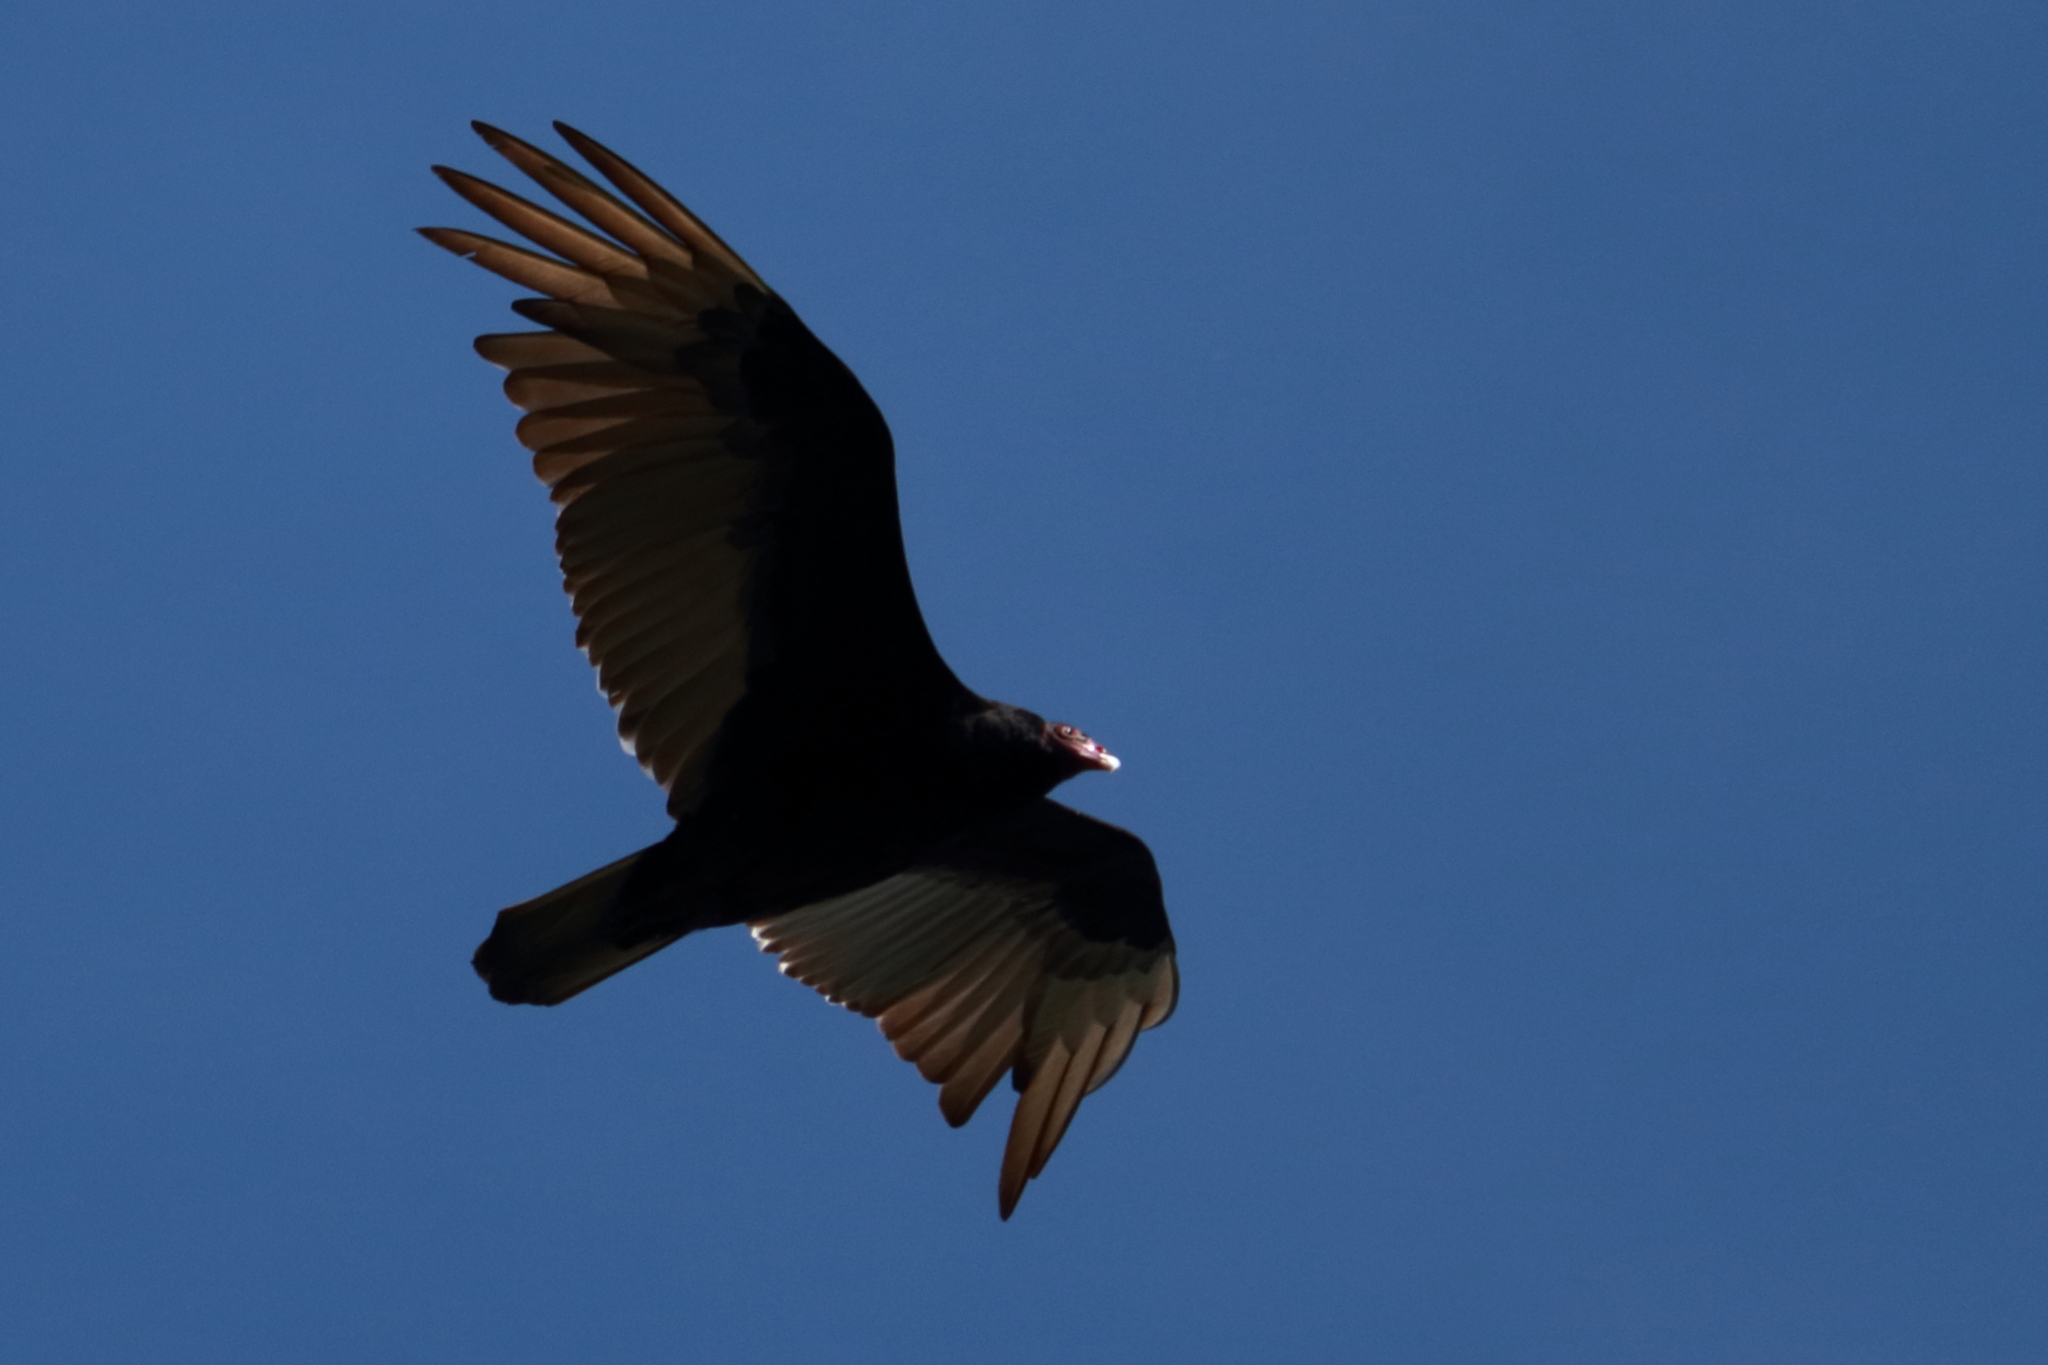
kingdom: Animalia
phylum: Chordata
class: Aves
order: Accipitriformes
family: Cathartidae
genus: Cathartes
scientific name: Cathartes aura
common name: Turkey vulture
